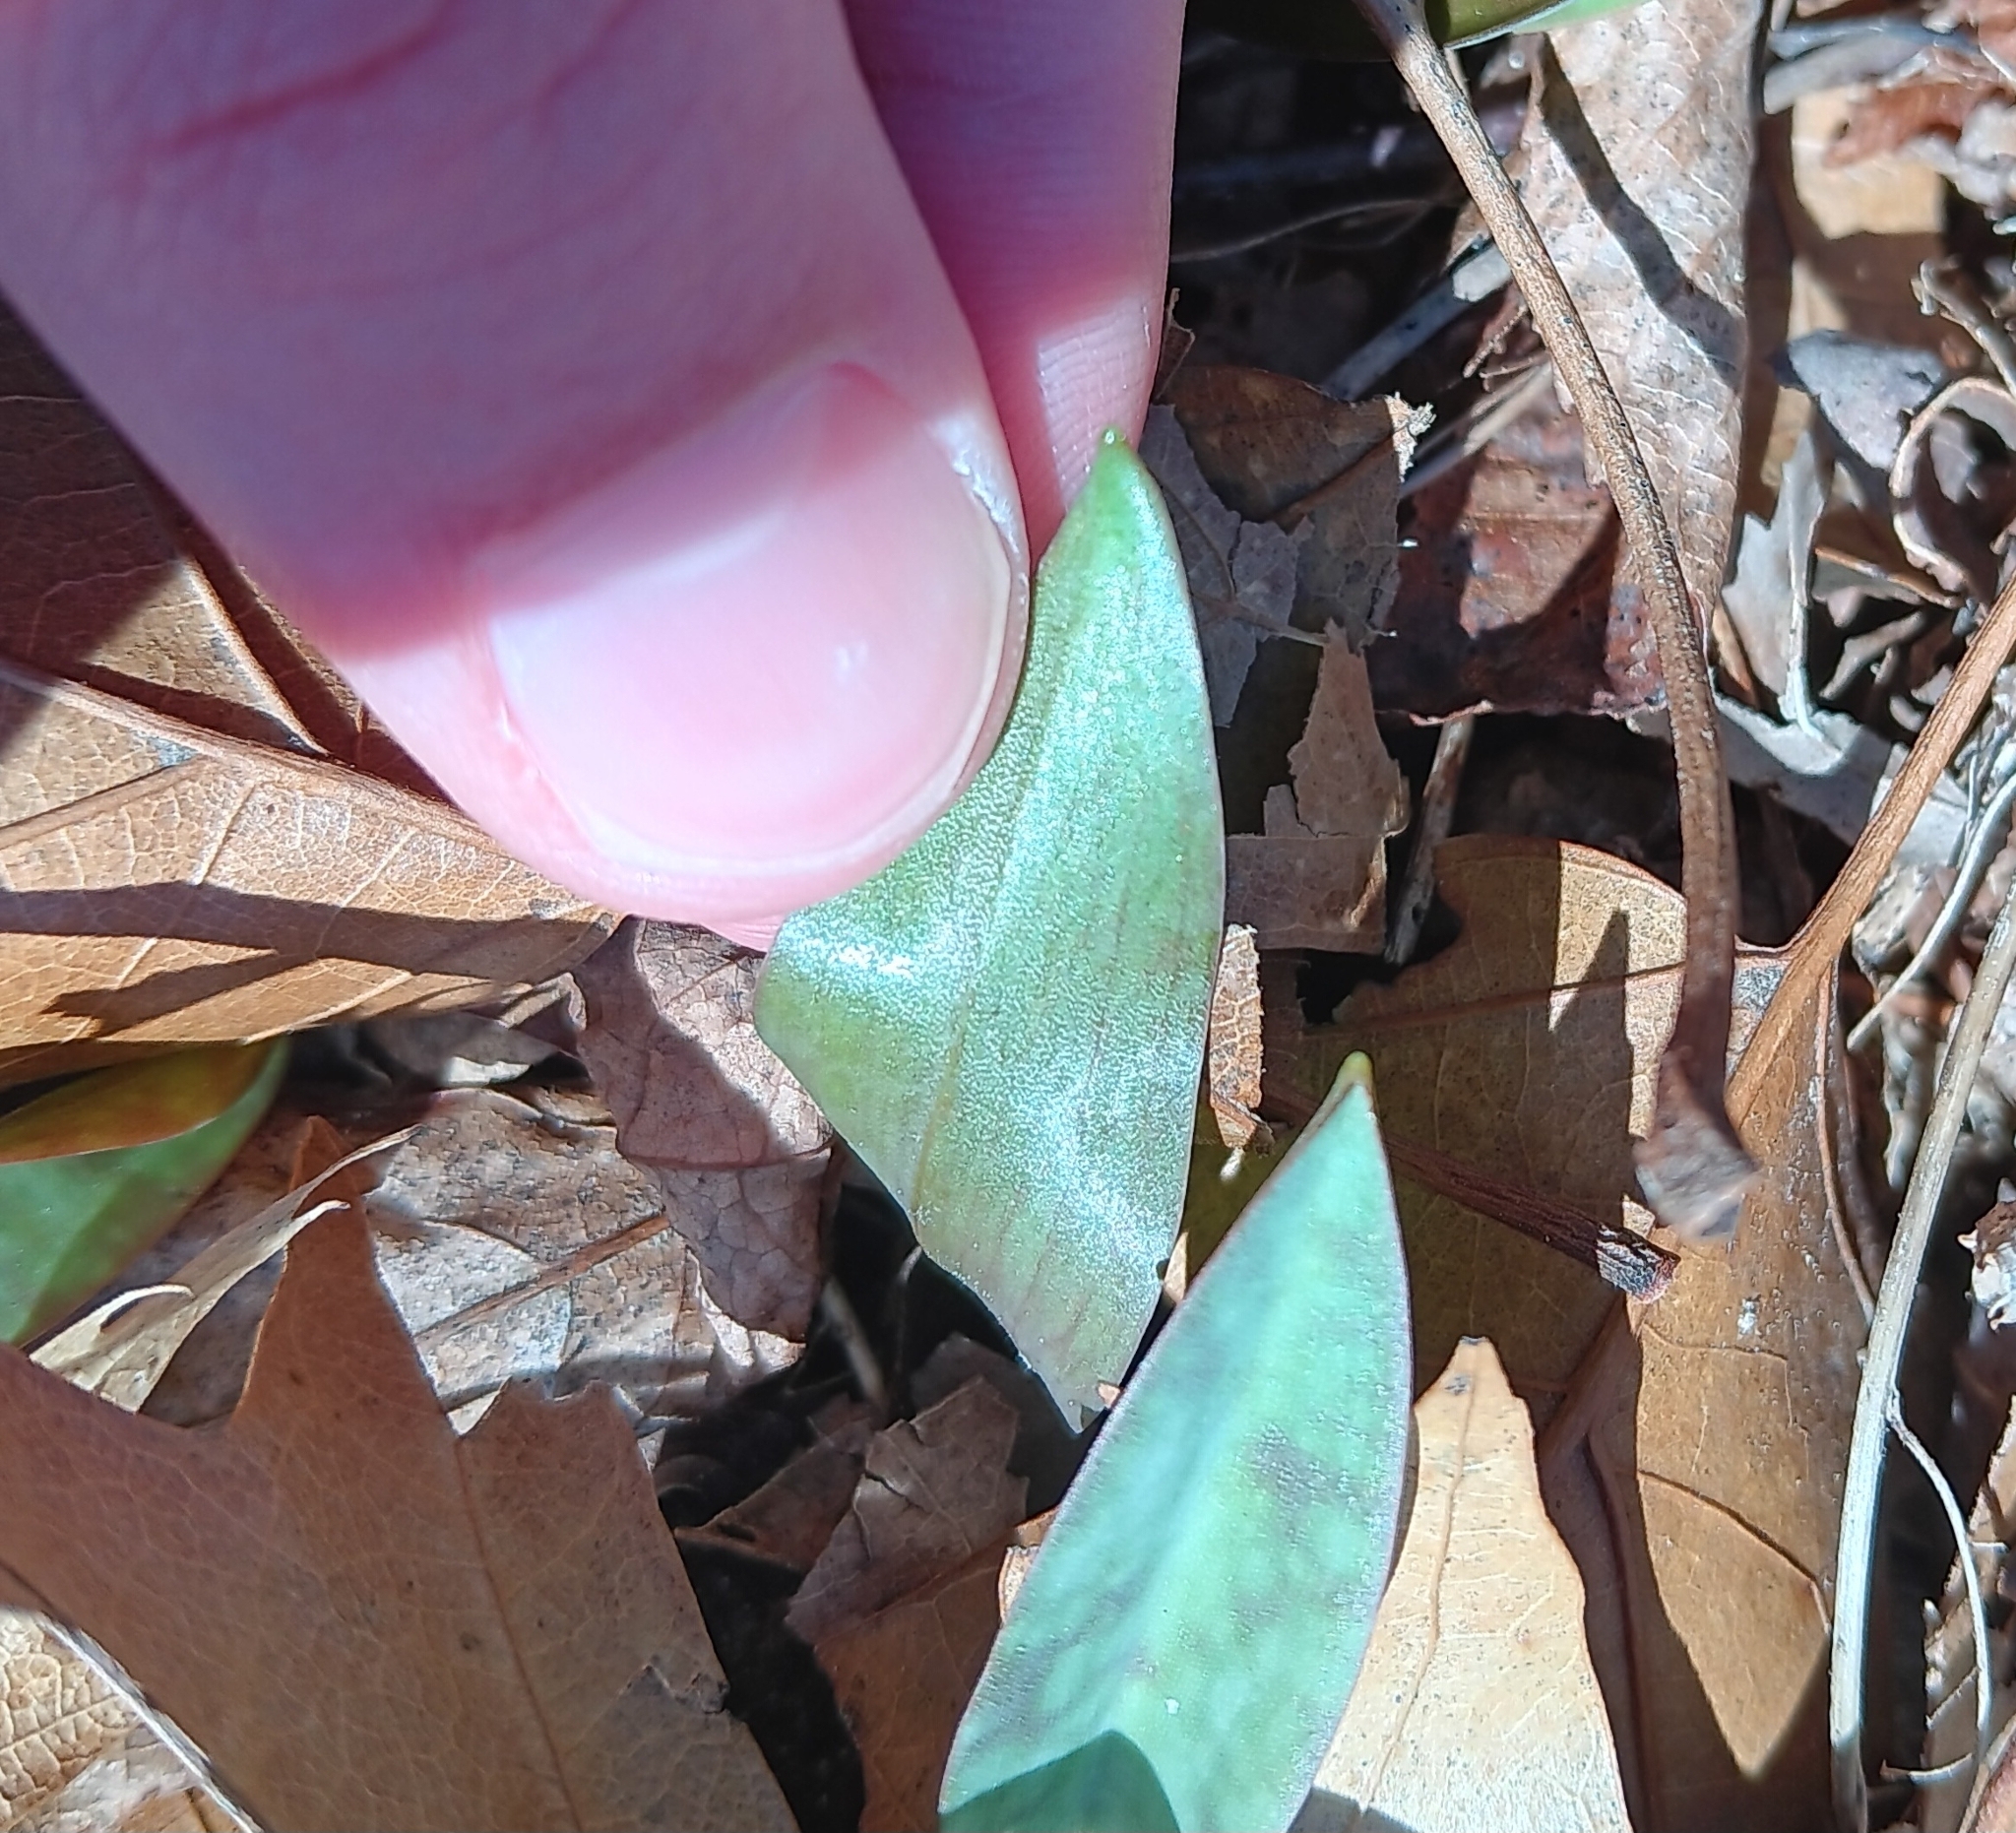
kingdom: Plantae
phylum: Tracheophyta
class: Liliopsida
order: Liliales
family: Liliaceae
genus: Erythronium
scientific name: Erythronium americanum
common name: Yellow adder's-tongue
